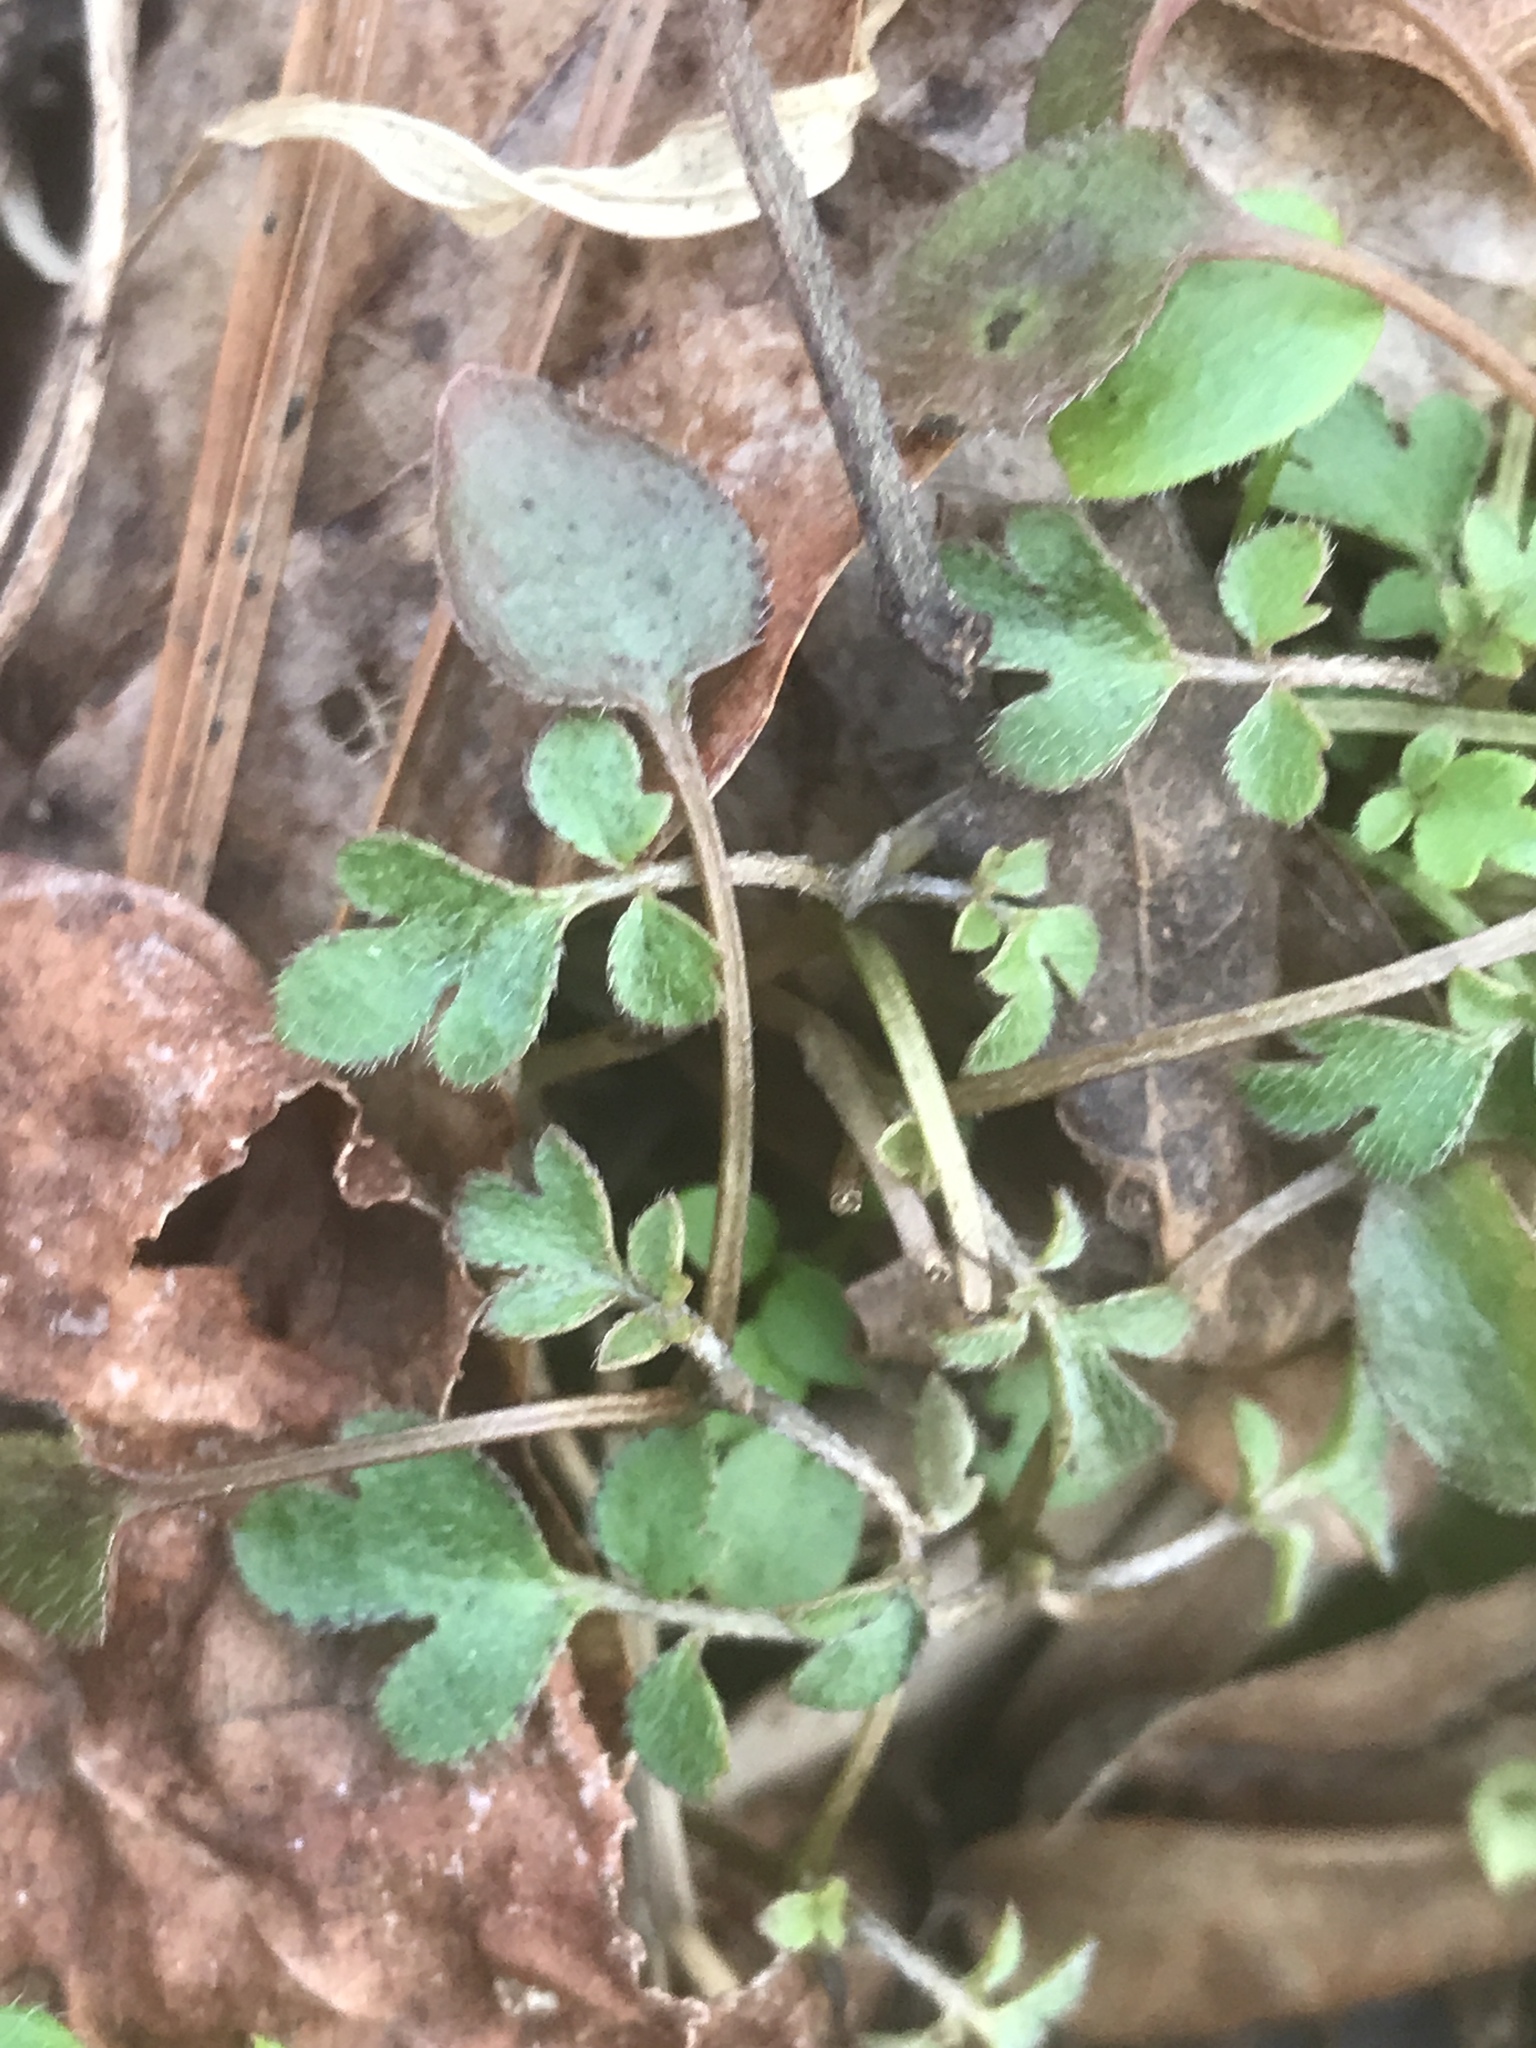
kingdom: Plantae
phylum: Tracheophyta
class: Magnoliopsida
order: Boraginales
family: Hydrophyllaceae
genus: Phacelia
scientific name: Phacelia covillei
